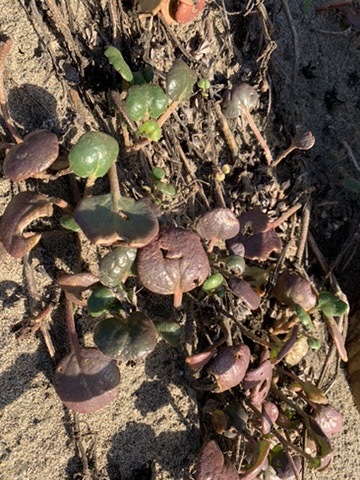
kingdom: Plantae
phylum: Tracheophyta
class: Magnoliopsida
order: Caryophyllales
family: Nyctaginaceae
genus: Abronia
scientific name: Abronia latifolia
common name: Yellow sand-verbena
